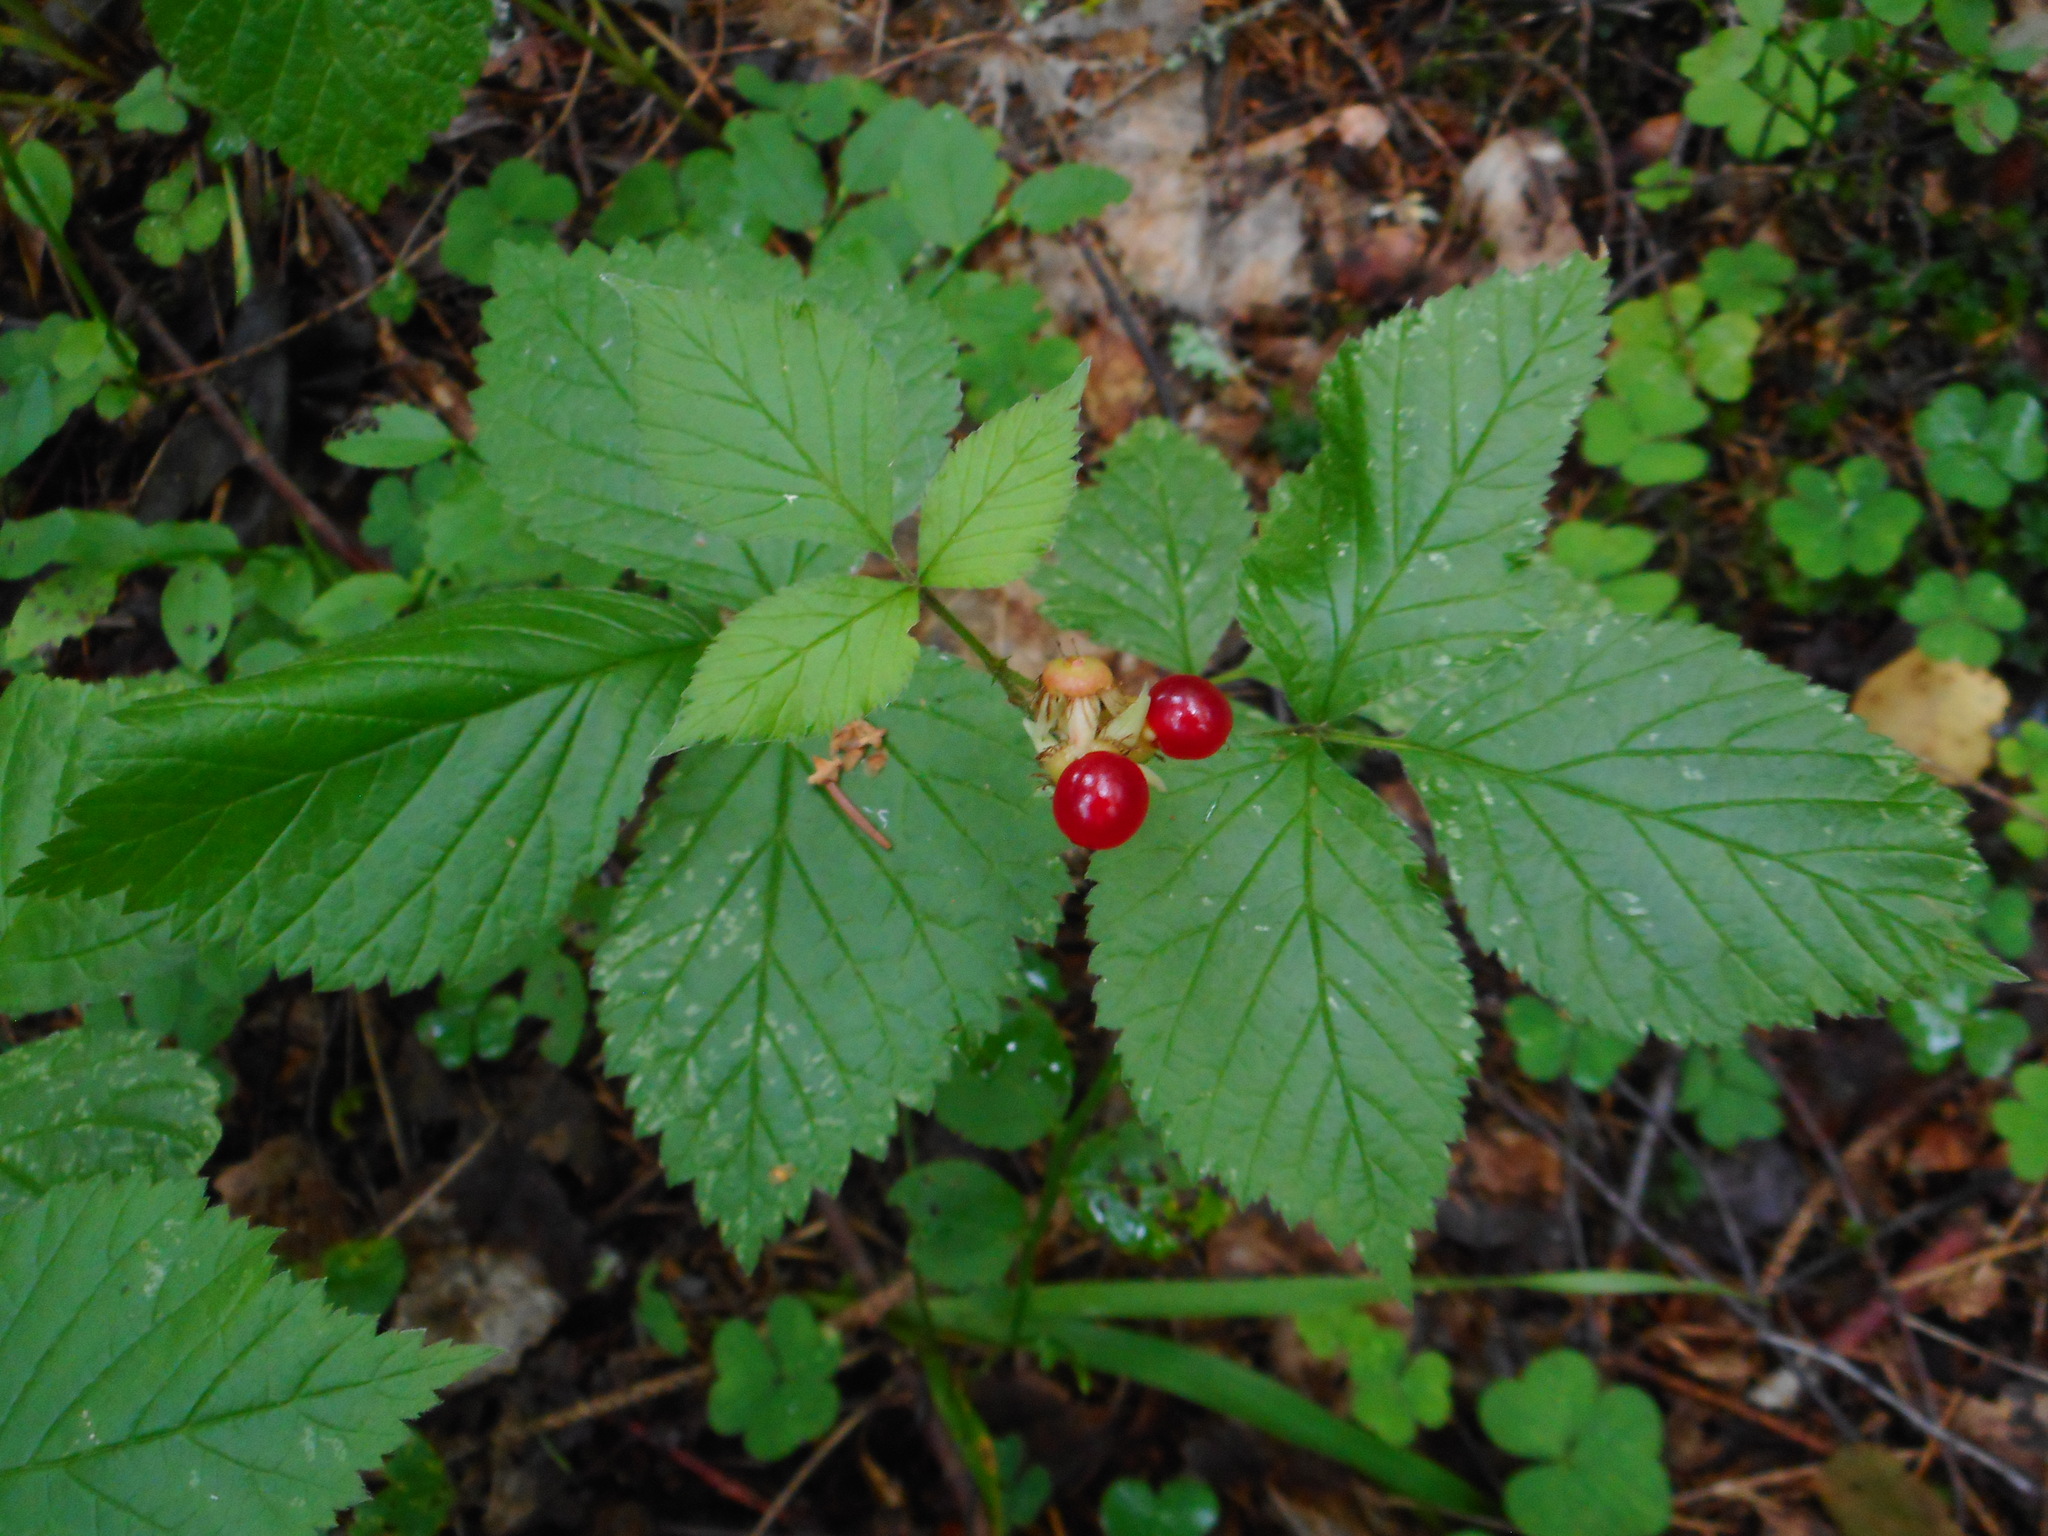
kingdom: Plantae
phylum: Tracheophyta
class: Magnoliopsida
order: Rosales
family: Rosaceae
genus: Rubus
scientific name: Rubus saxatilis
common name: Stone bramble
